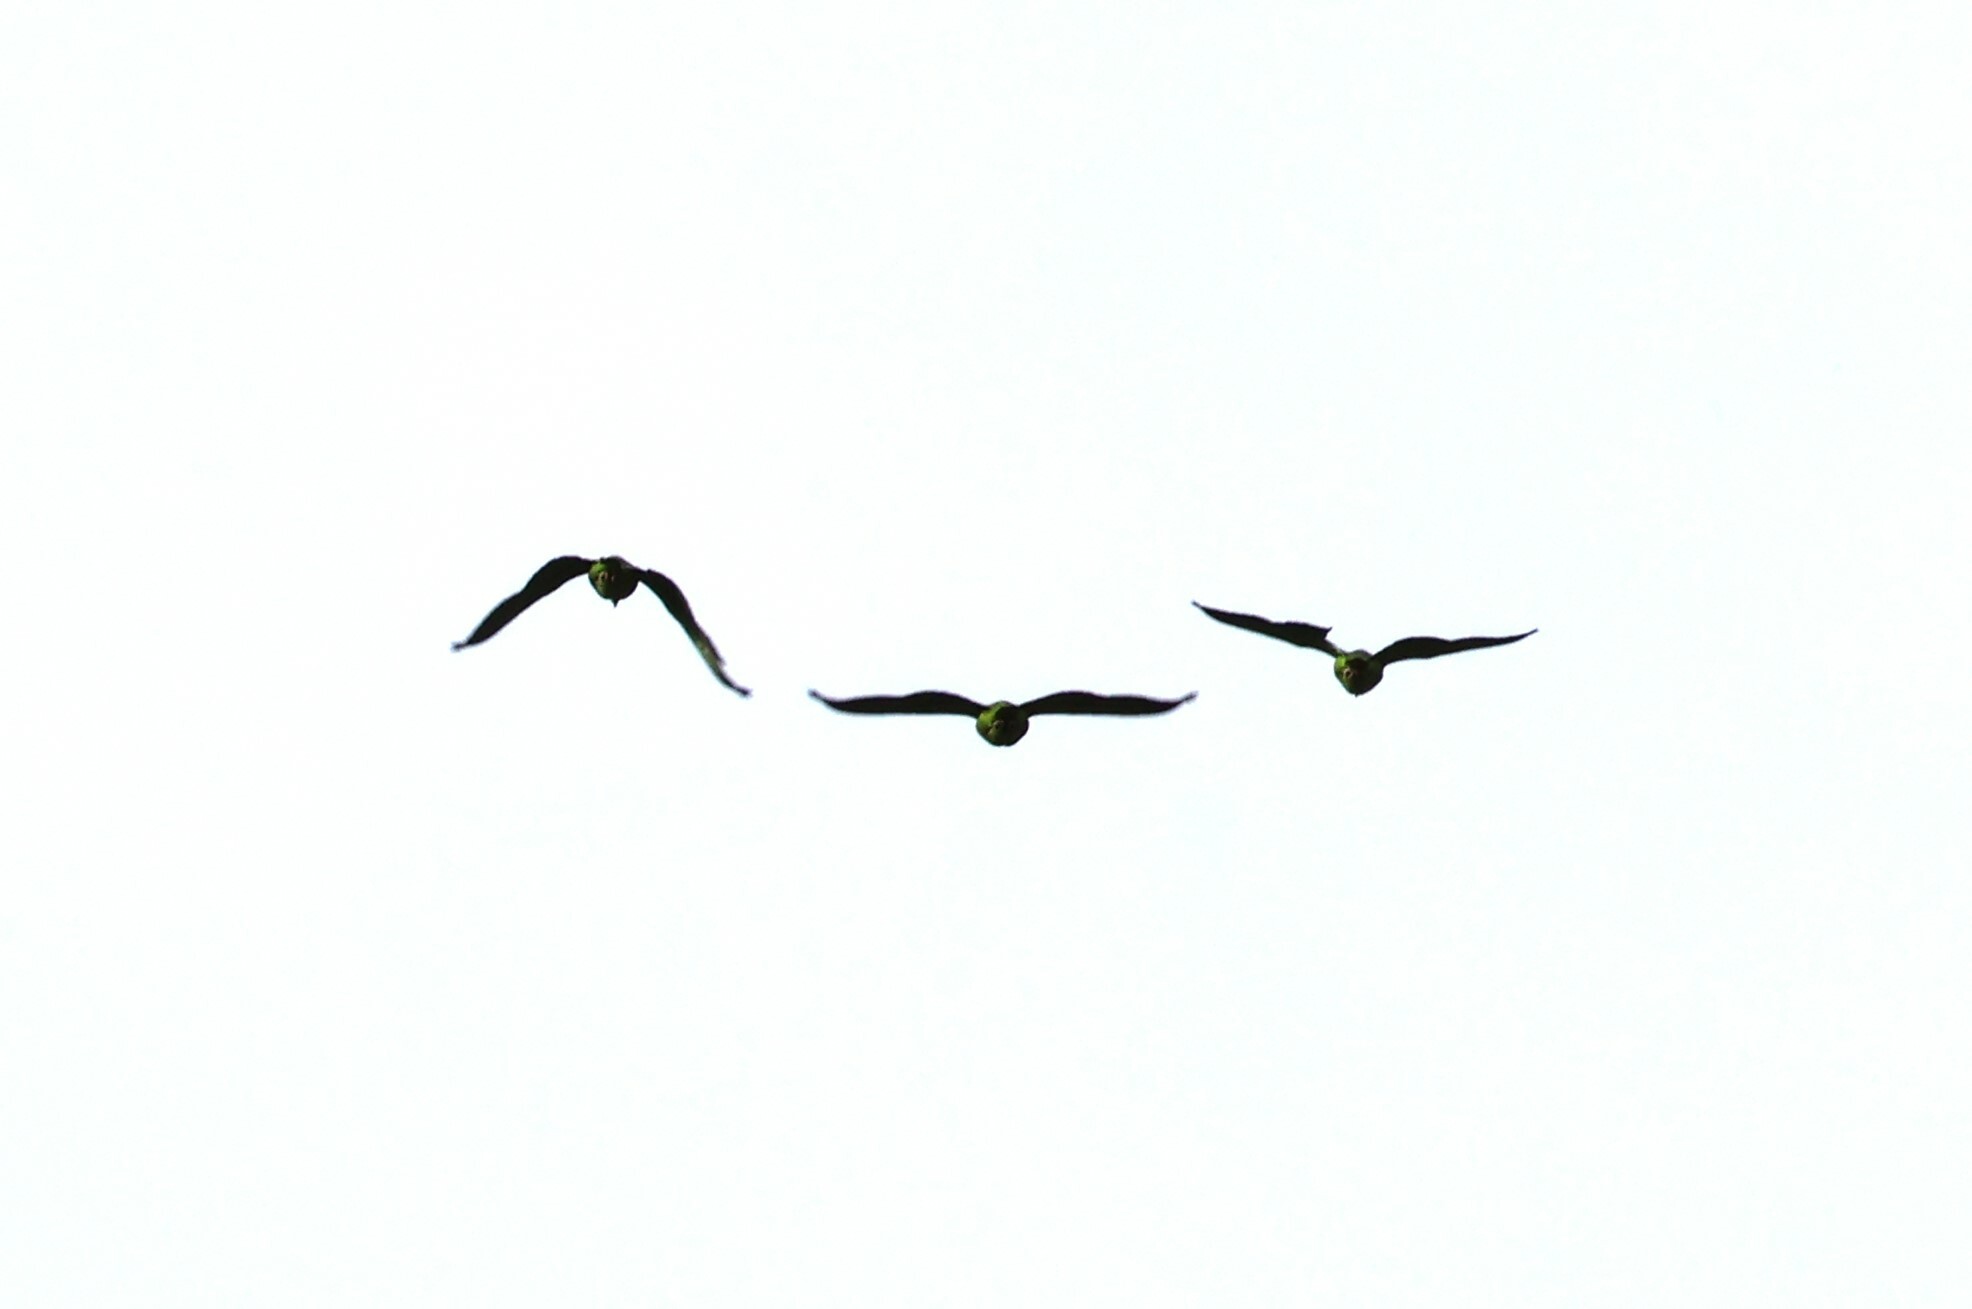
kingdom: Animalia
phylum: Chordata
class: Aves
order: Psittaciformes
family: Psittacidae
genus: Amazona
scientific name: Amazona
